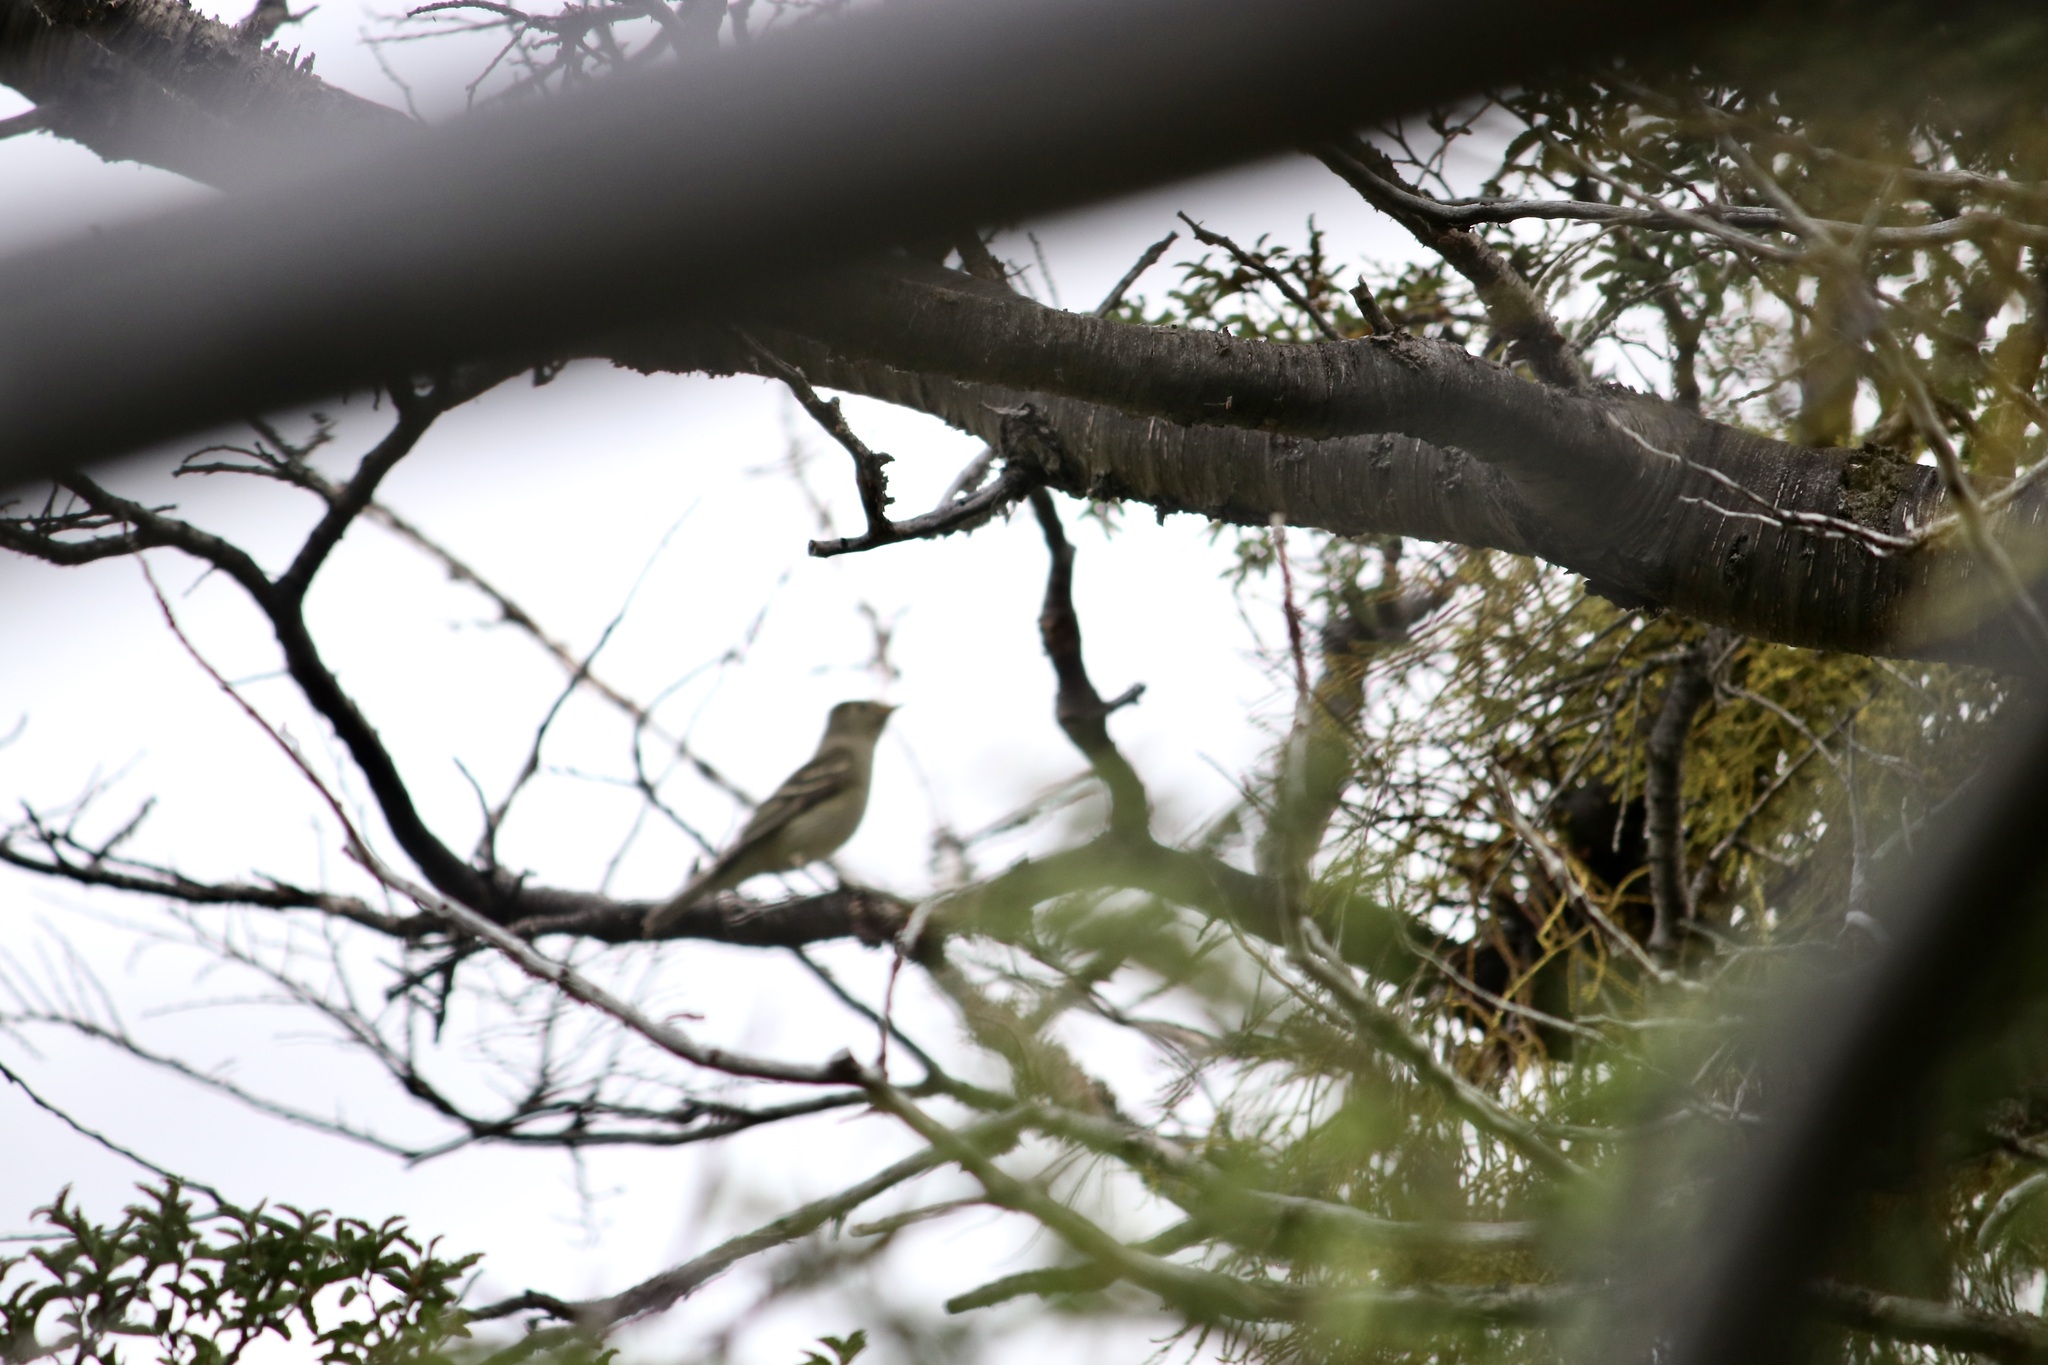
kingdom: Animalia
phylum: Chordata
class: Aves
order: Passeriformes
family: Tyrannidae
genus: Elaenia
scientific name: Elaenia albiceps
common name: White-crested elaenia
